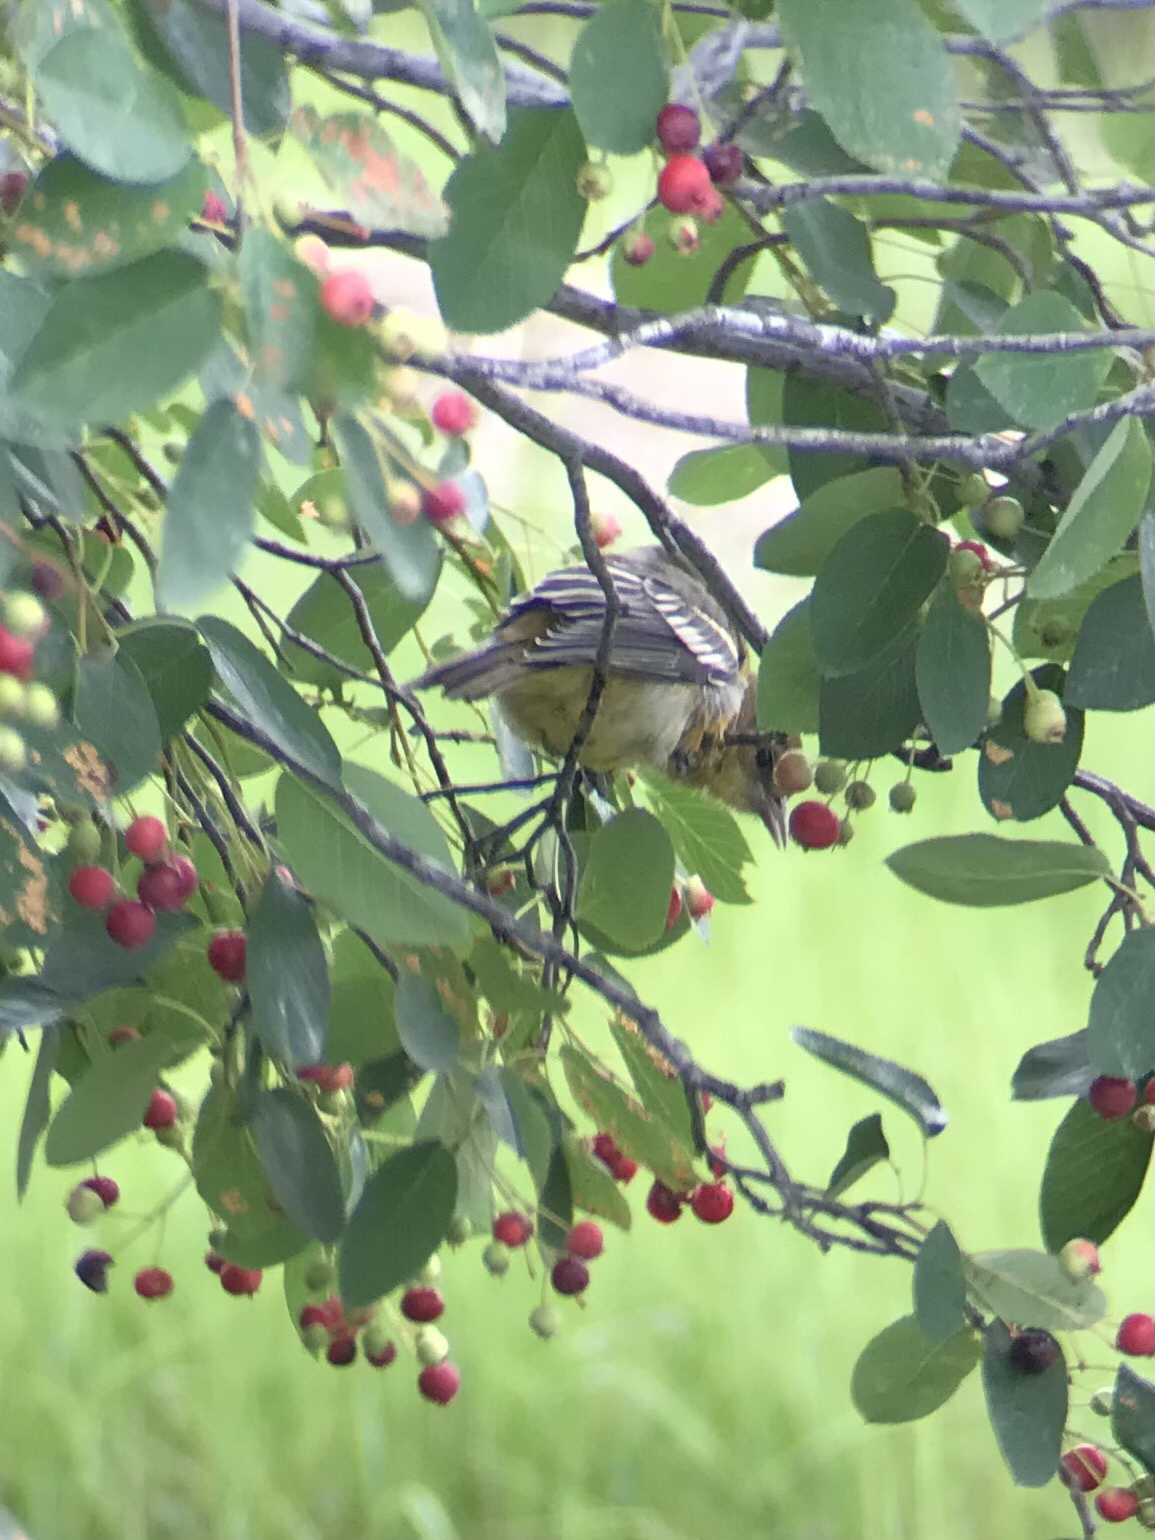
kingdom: Animalia
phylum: Chordata
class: Aves
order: Passeriformes
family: Icteridae
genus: Icterus
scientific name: Icterus galbula
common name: Baltimore oriole
